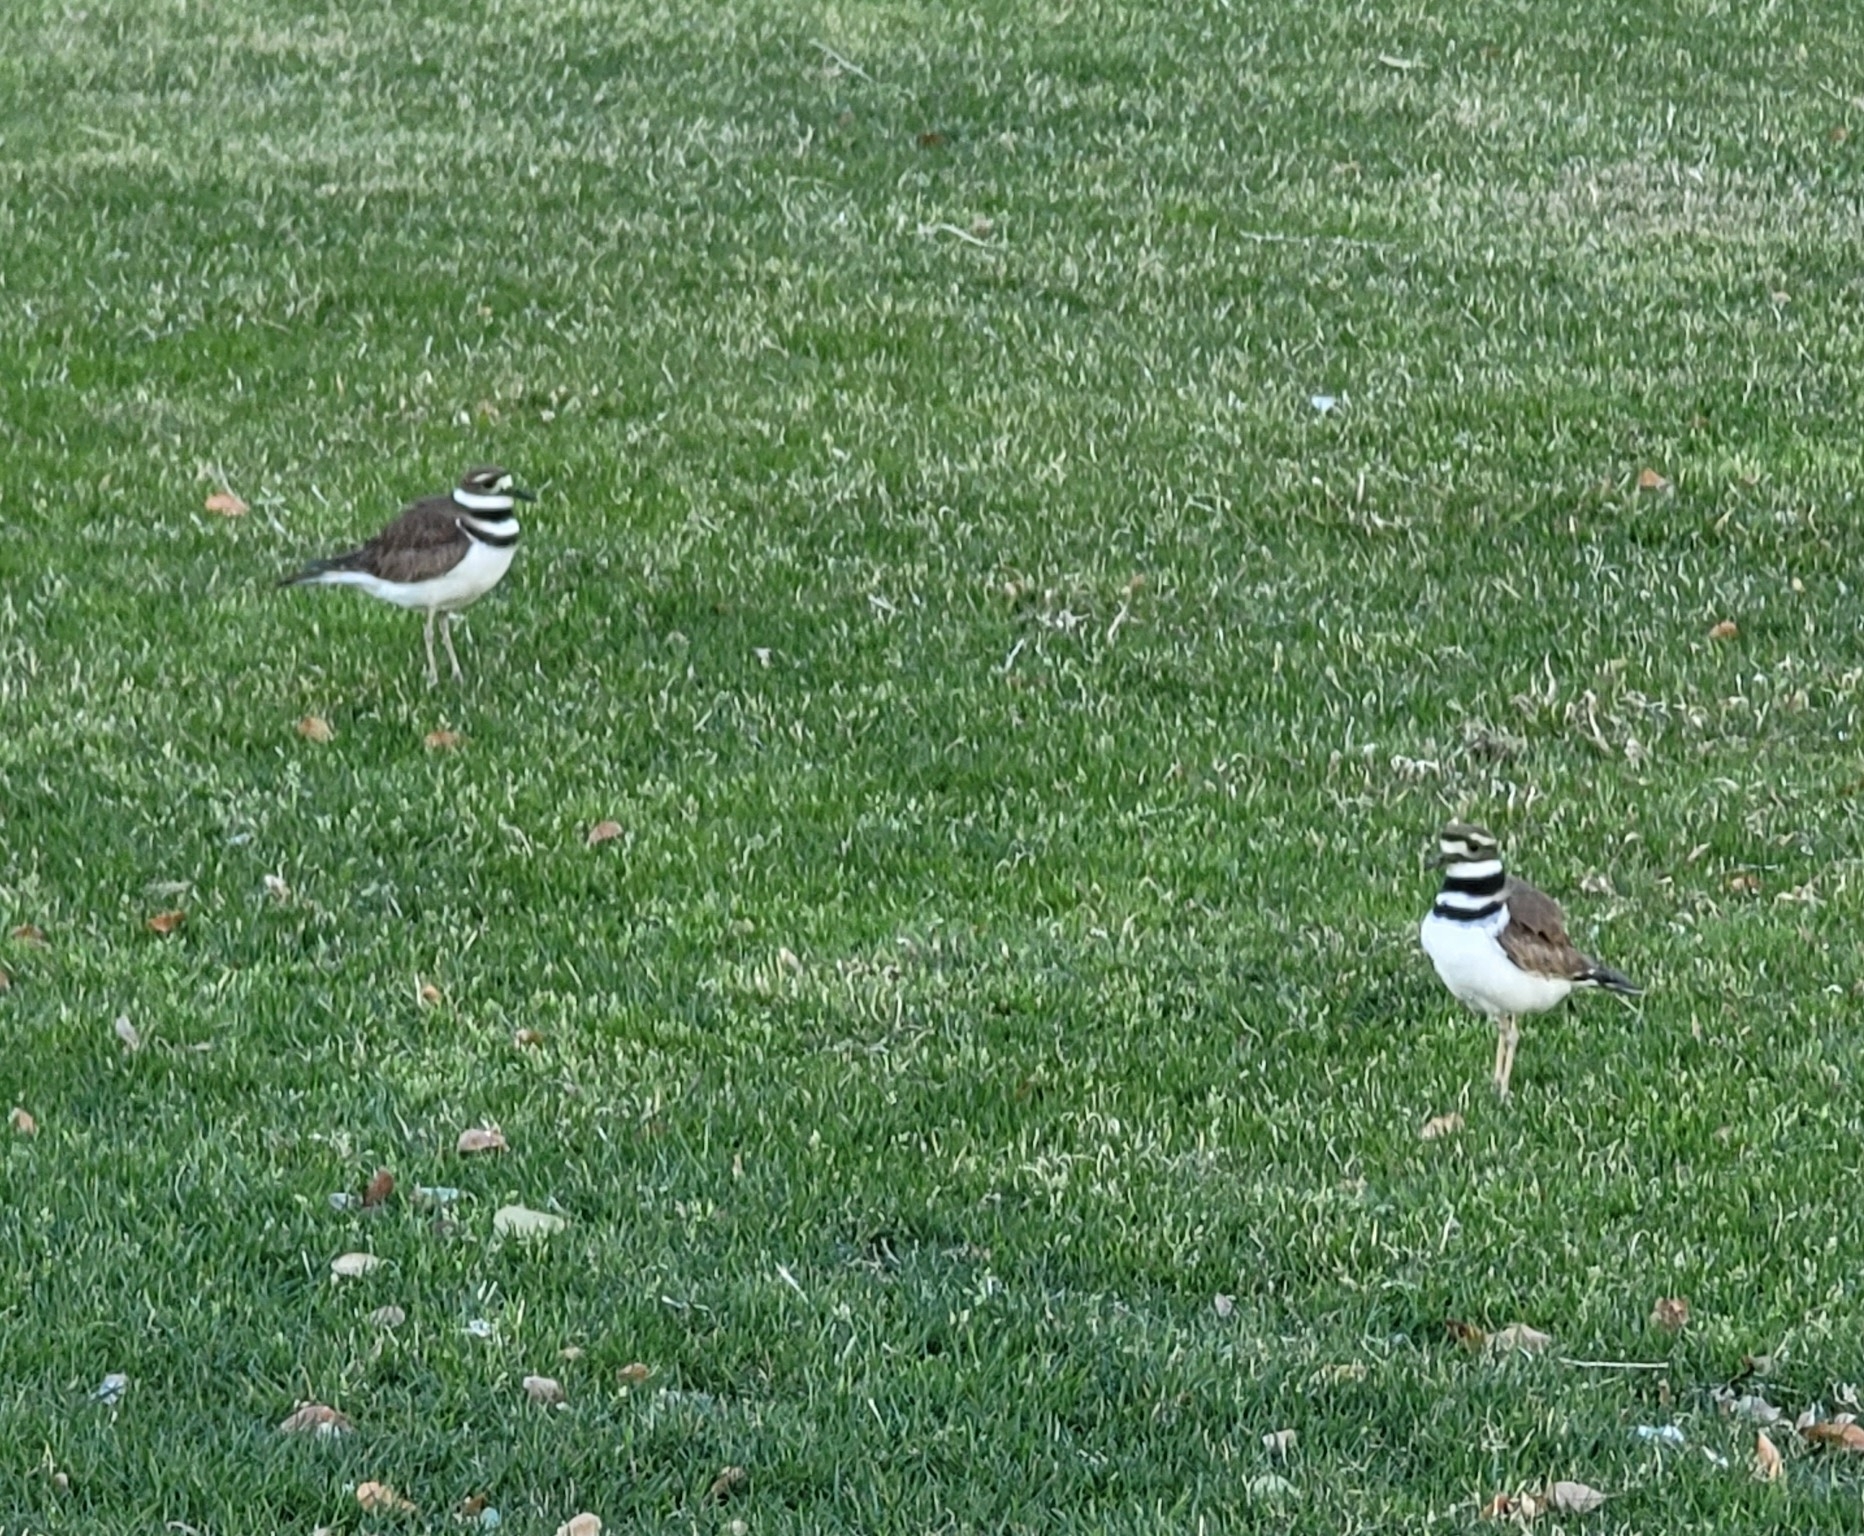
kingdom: Animalia
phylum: Chordata
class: Aves
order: Charadriiformes
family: Charadriidae
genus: Charadrius
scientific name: Charadrius vociferus
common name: Killdeer
